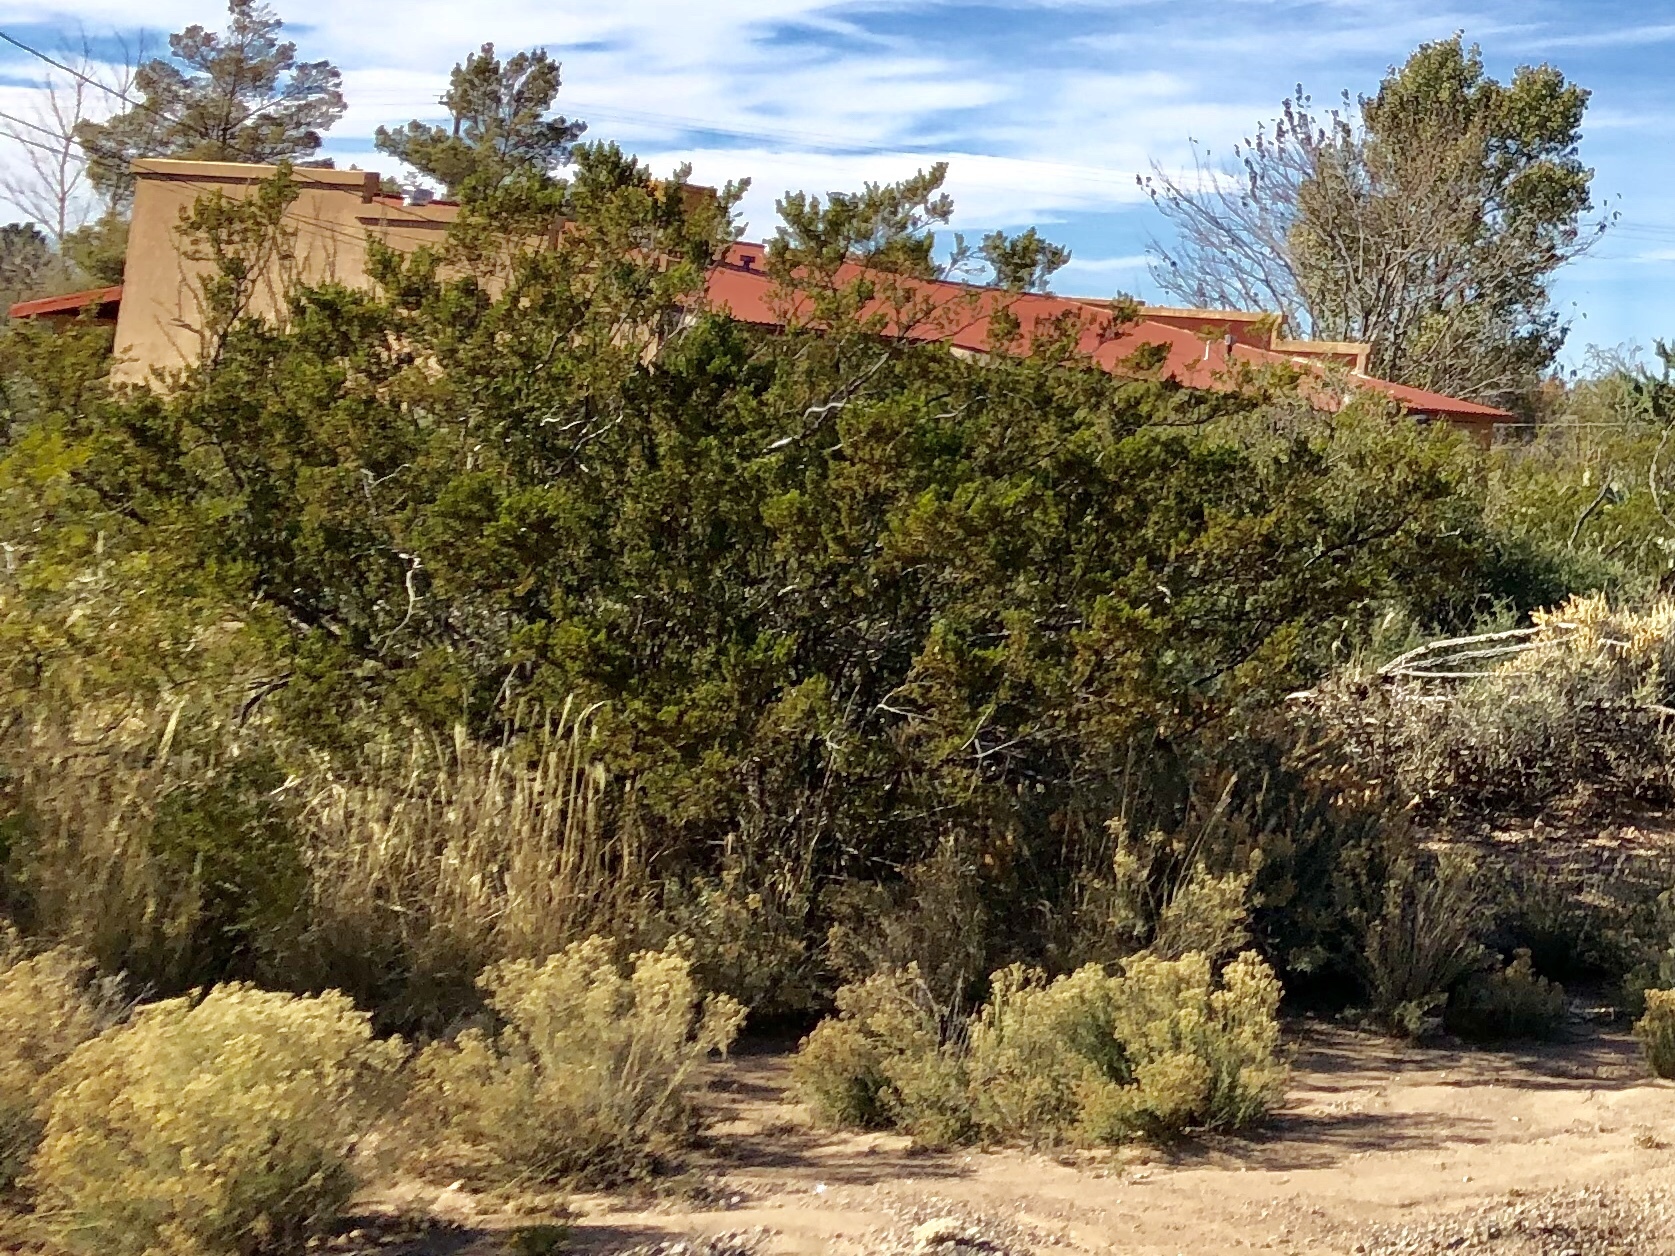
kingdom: Plantae
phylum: Tracheophyta
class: Magnoliopsida
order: Zygophyllales
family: Zygophyllaceae
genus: Larrea
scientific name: Larrea tridentata
